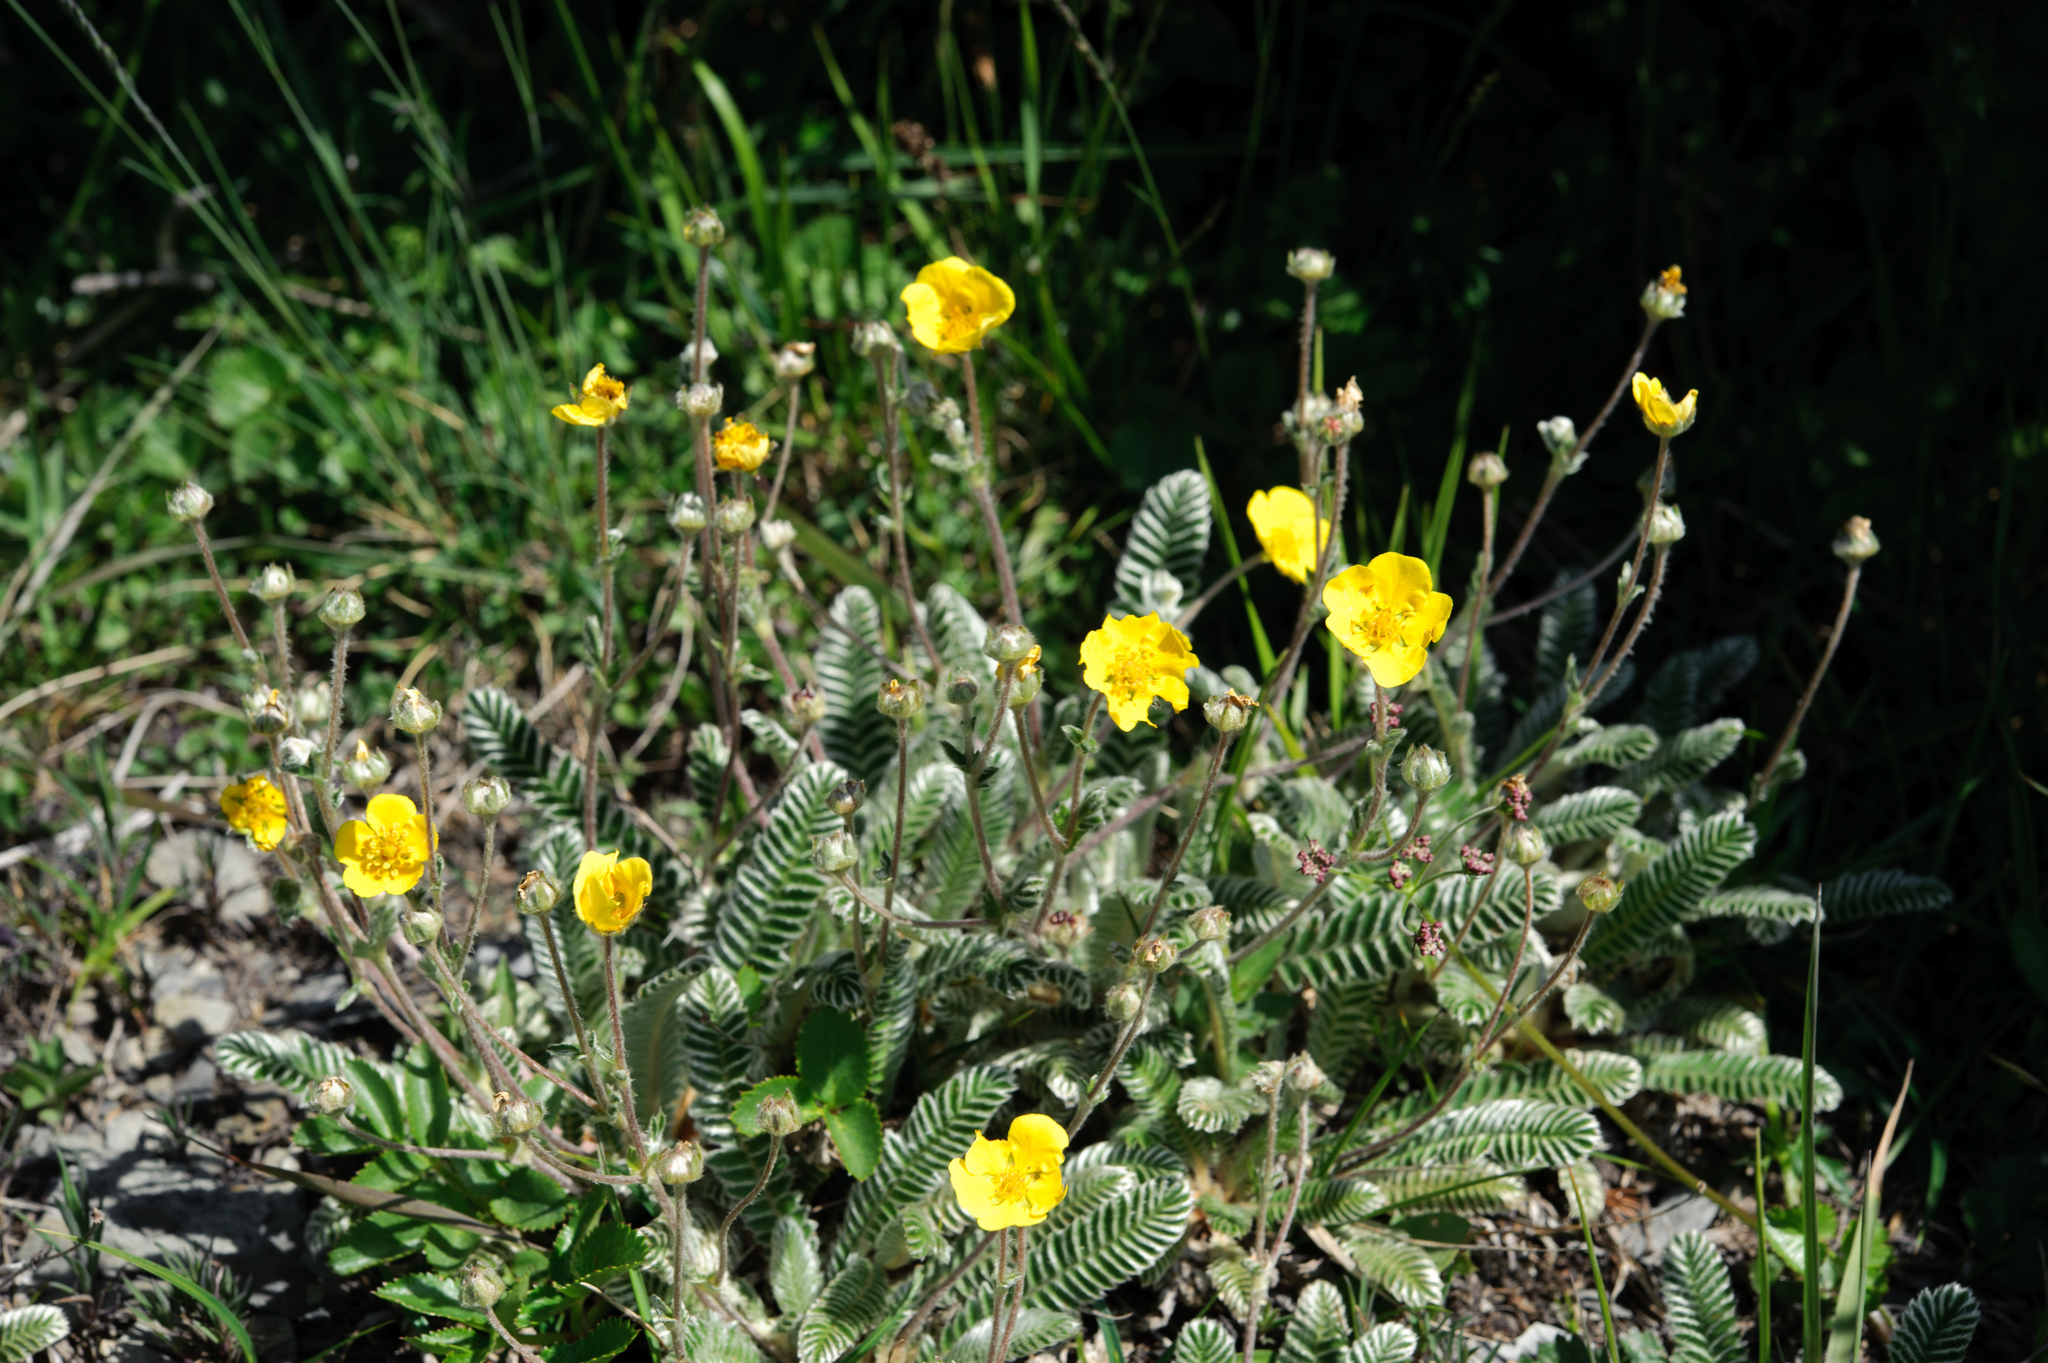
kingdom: Plantae
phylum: Tracheophyta
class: Magnoliopsida
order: Rosales
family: Rosaceae
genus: Argentina
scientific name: Argentina tugitakensis
